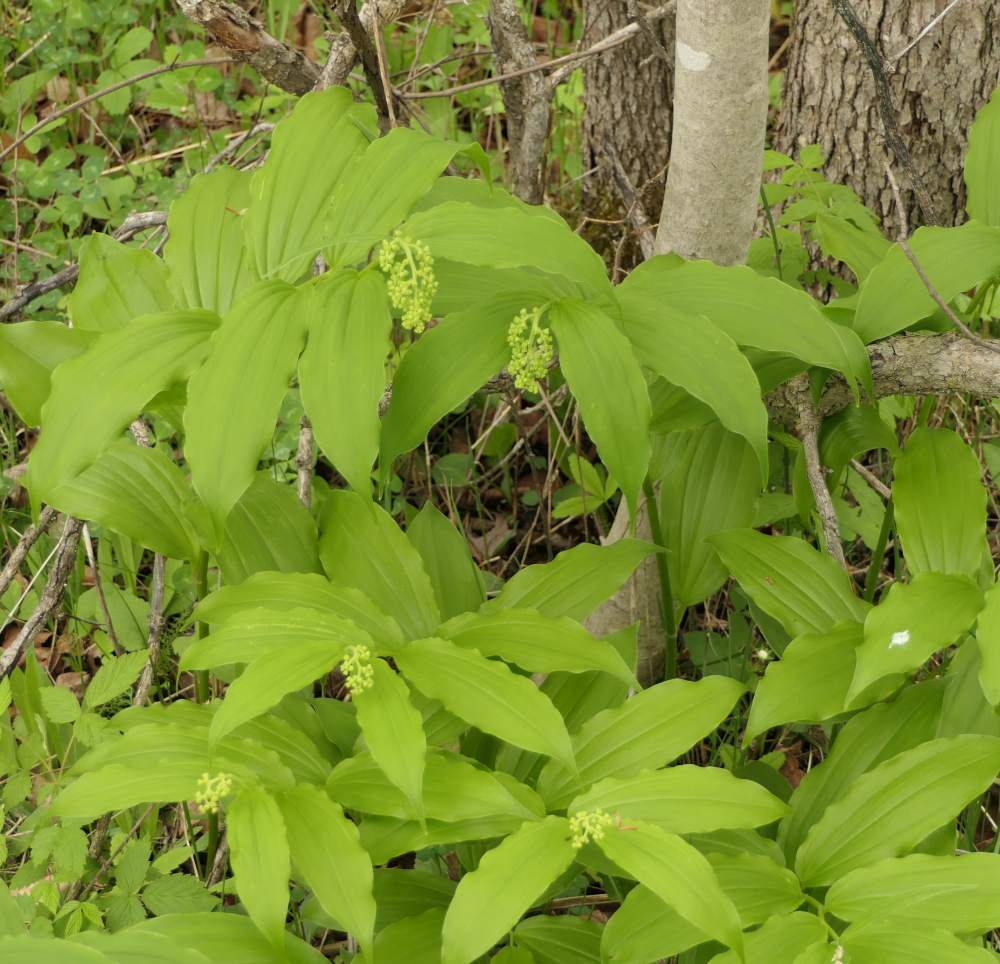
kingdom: Plantae
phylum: Tracheophyta
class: Liliopsida
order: Asparagales
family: Asparagaceae
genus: Maianthemum
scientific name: Maianthemum racemosum
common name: False spikenard
